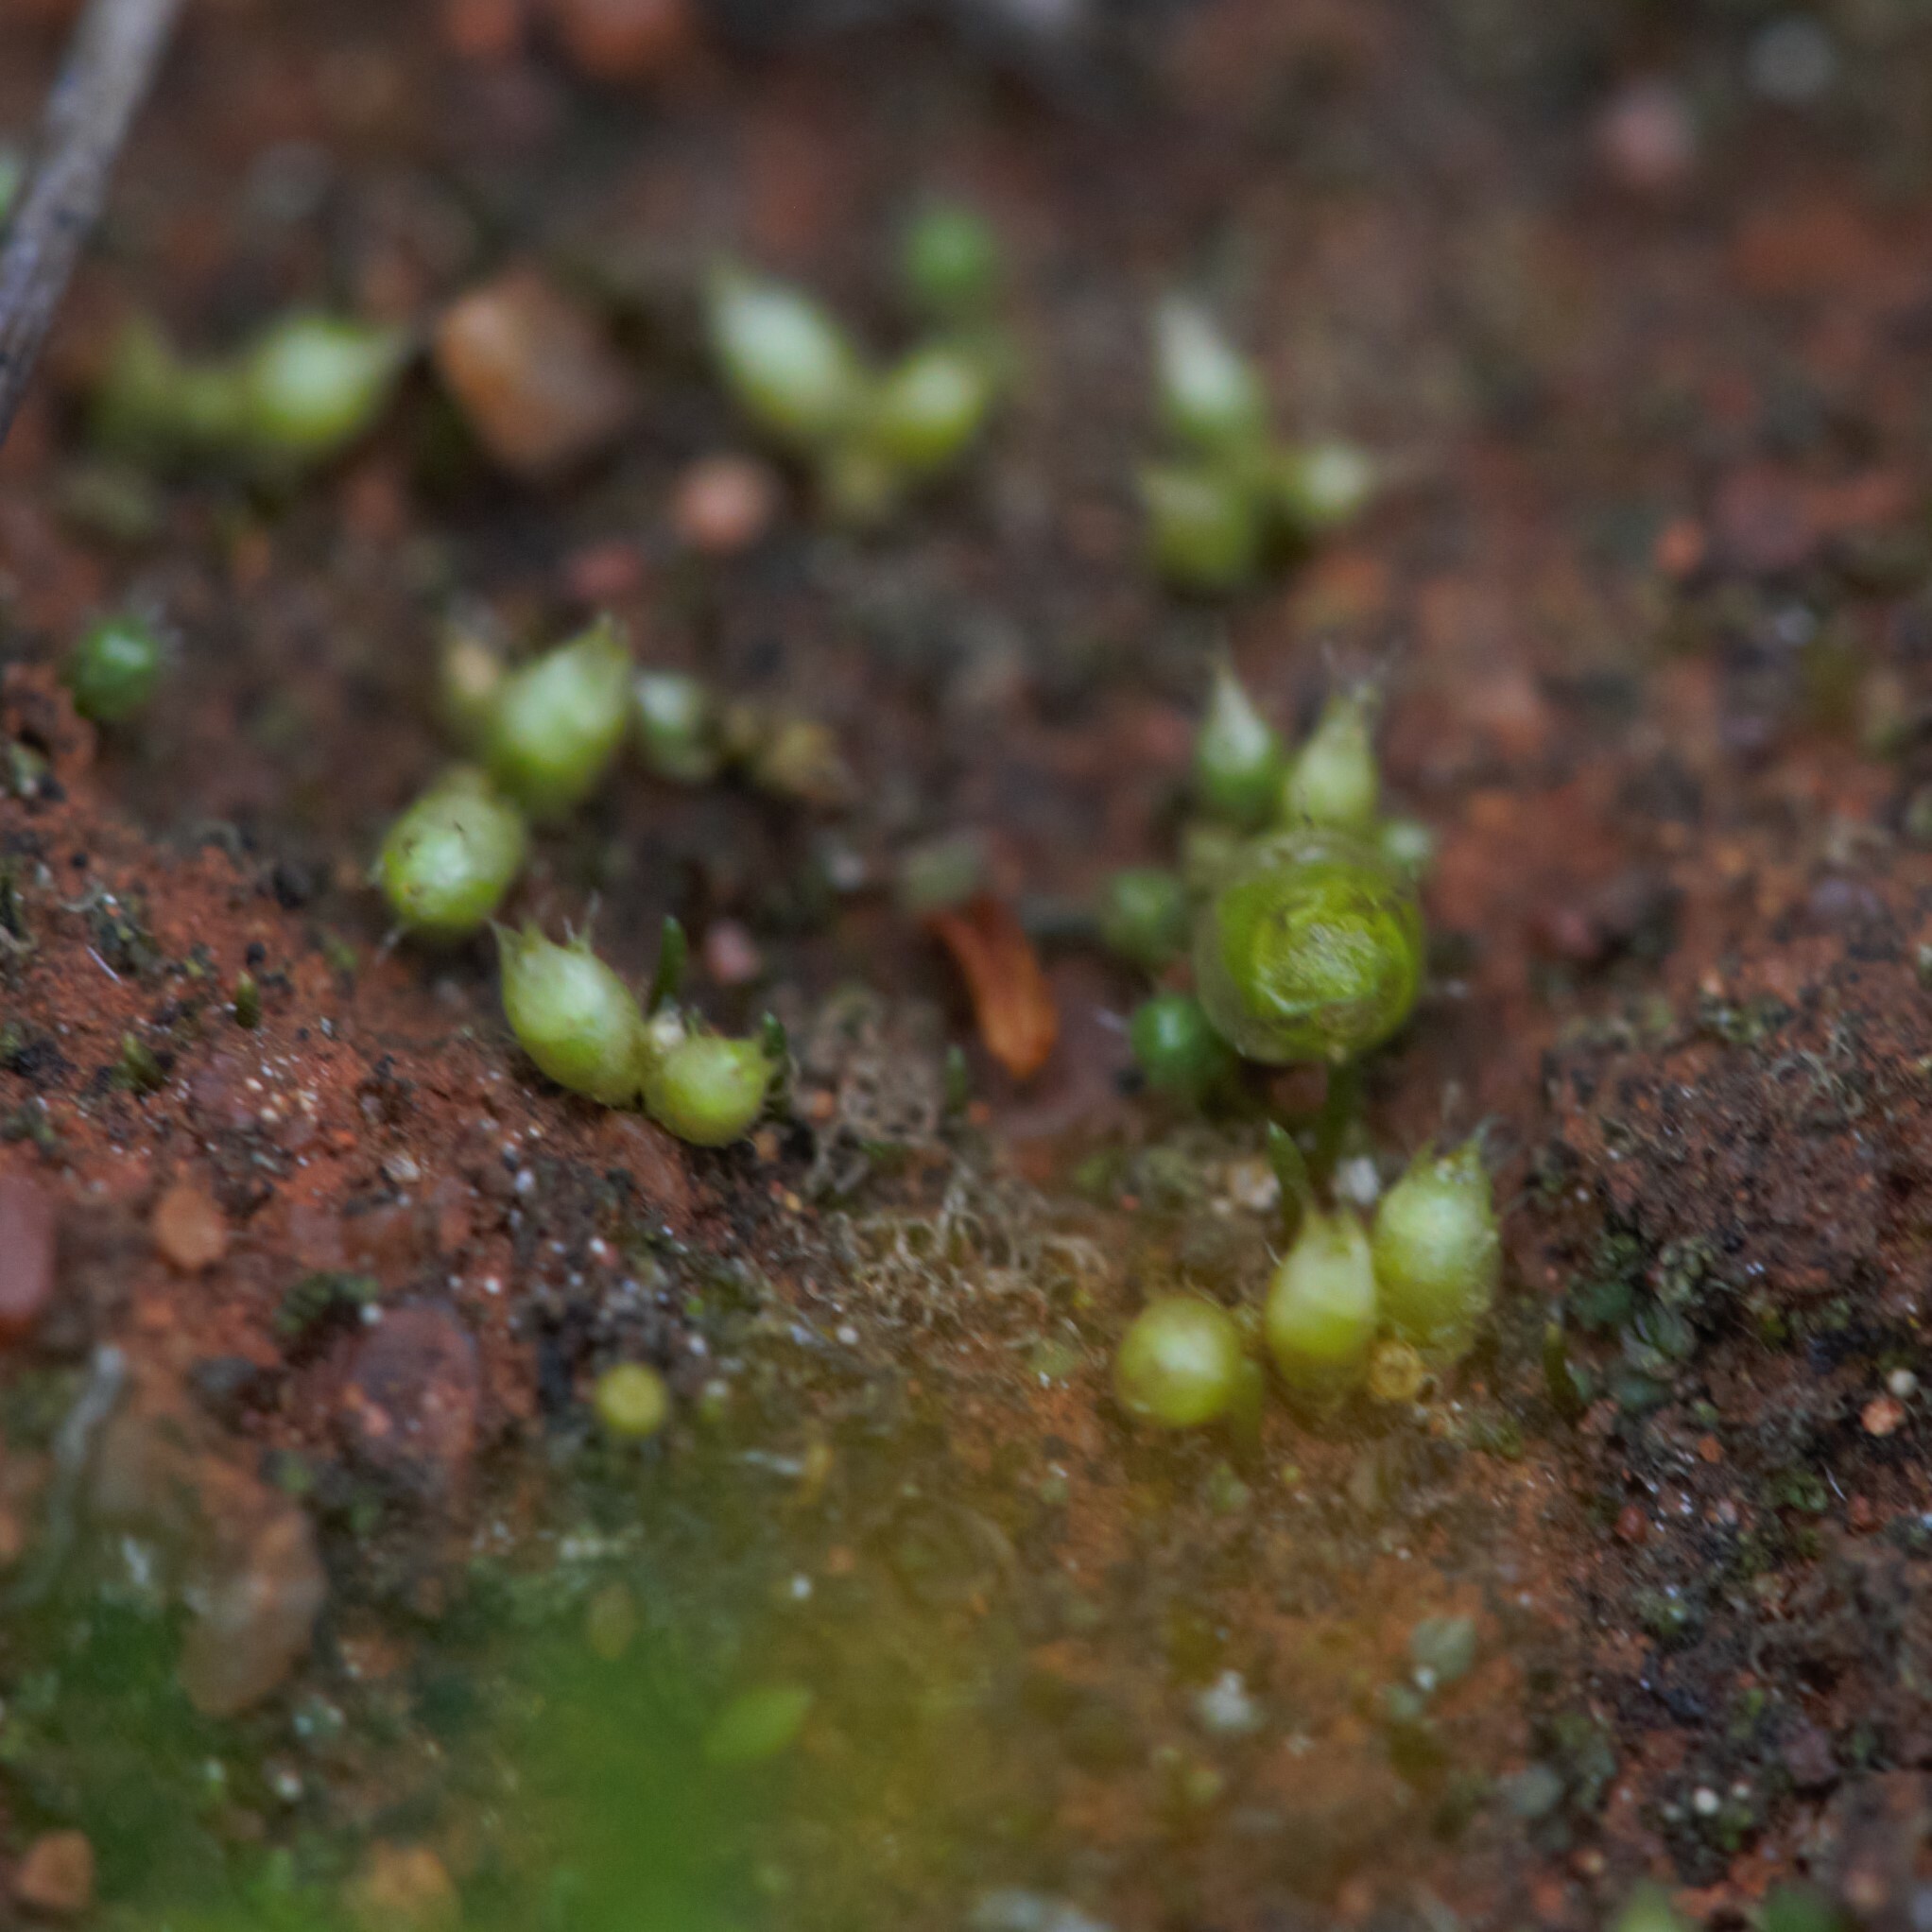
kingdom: Plantae
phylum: Bryophyta
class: Bryopsida
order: Gigaspermales
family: Gigaspermaceae
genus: Gigaspermum
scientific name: Gigaspermum repens
